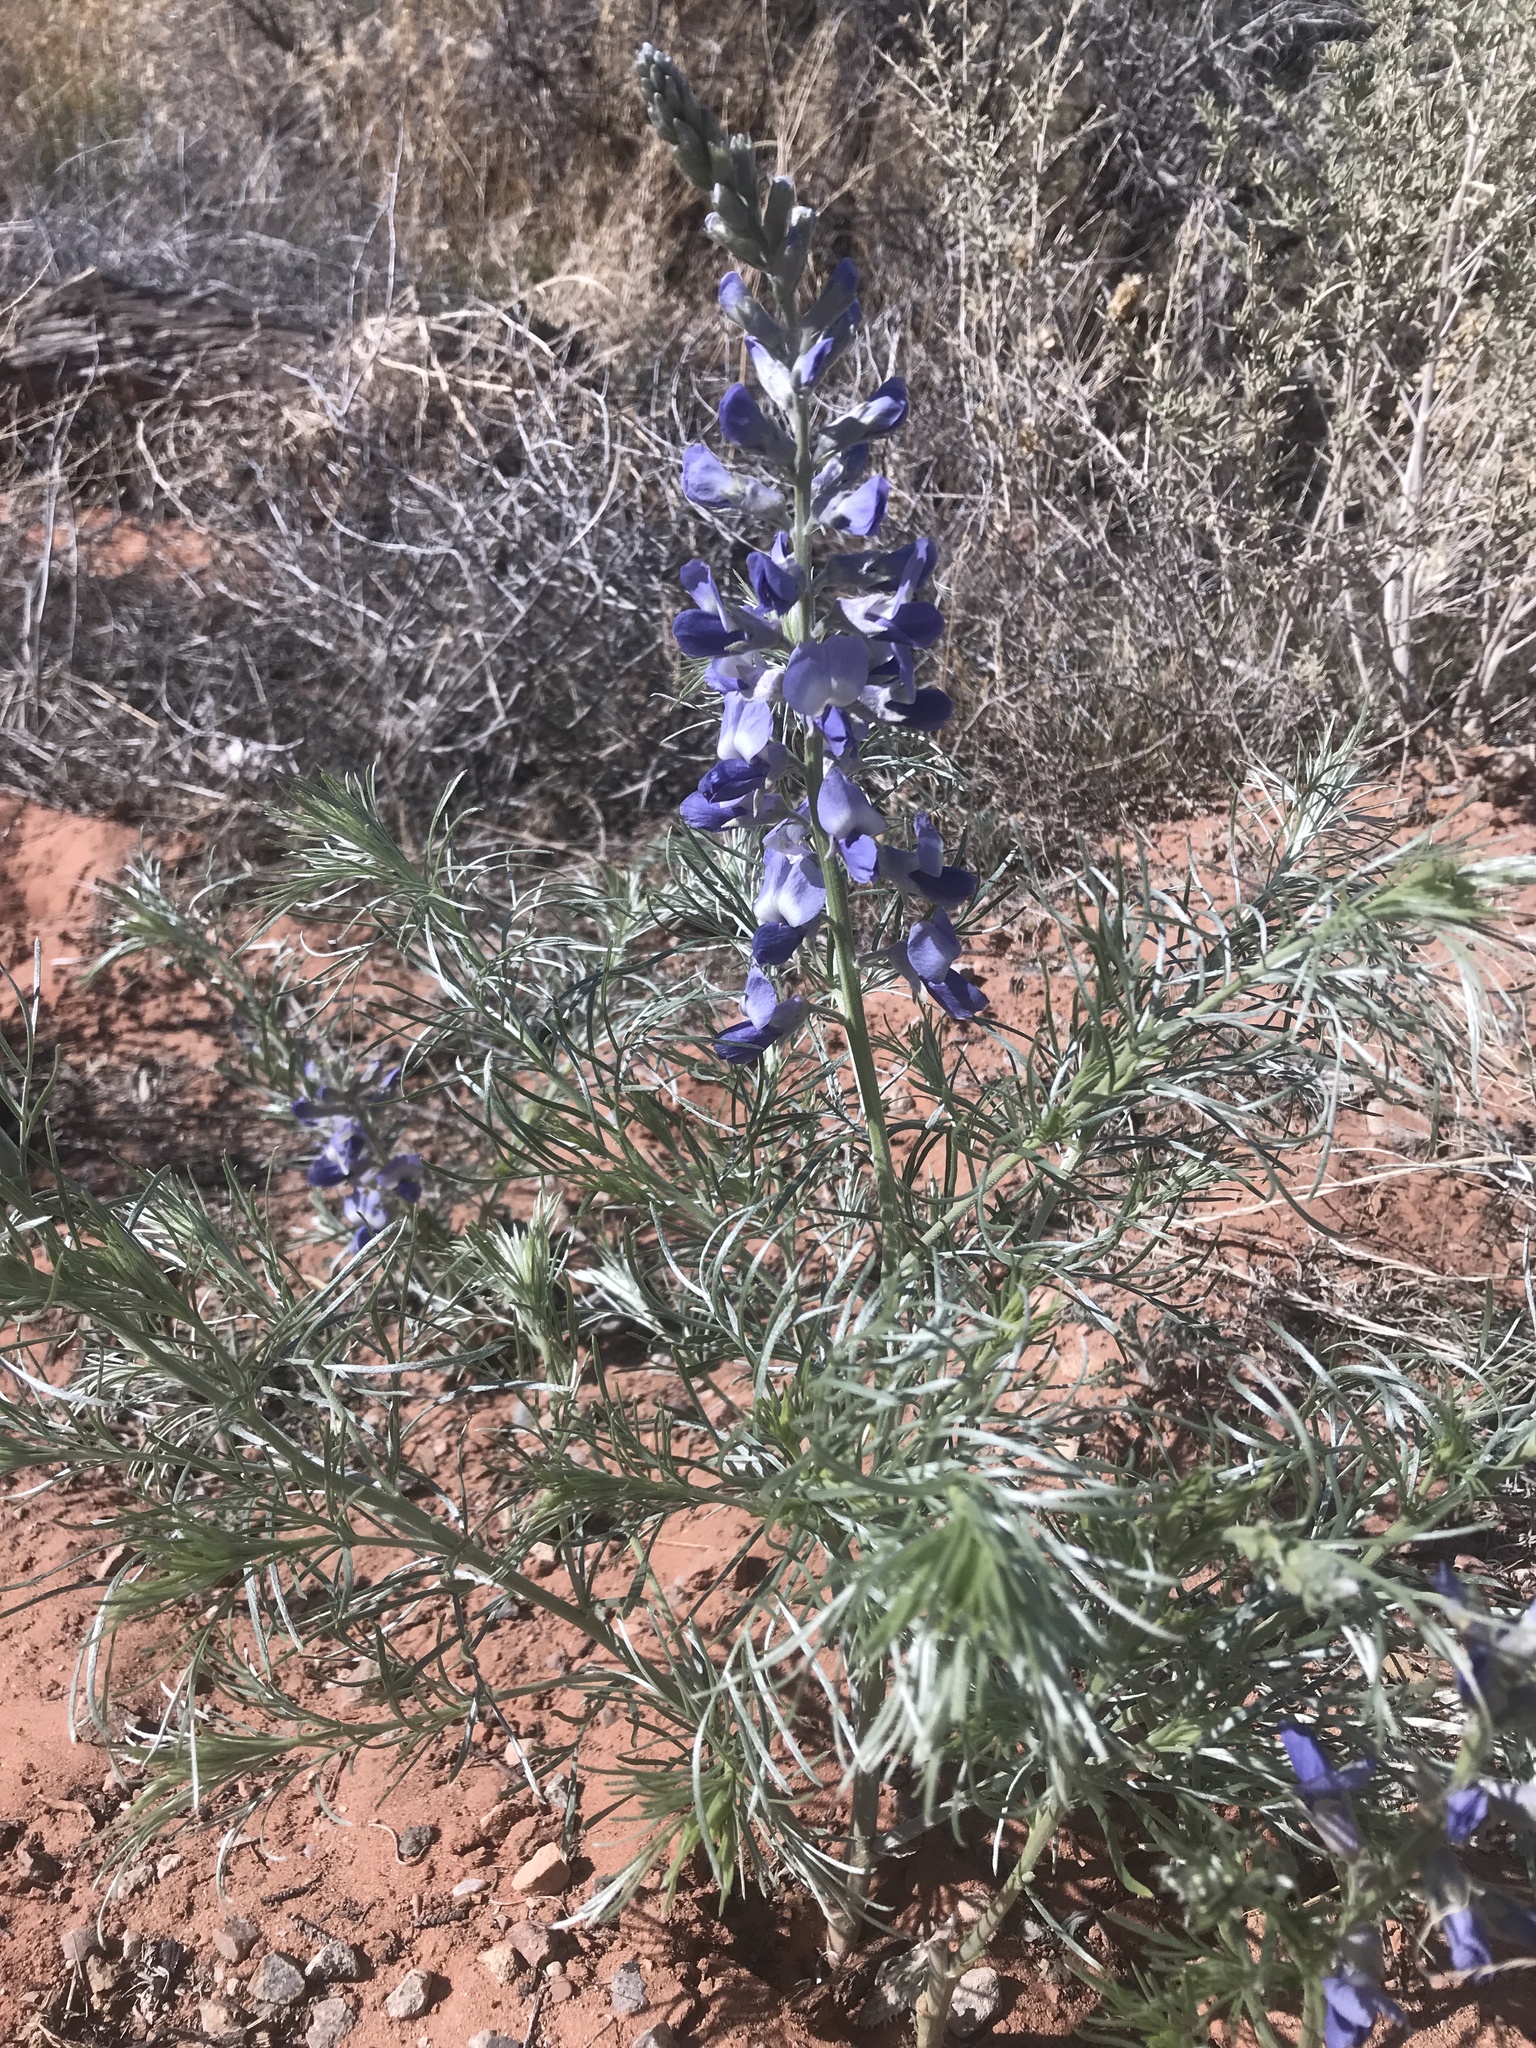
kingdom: Plantae
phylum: Tracheophyta
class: Magnoliopsida
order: Fabales
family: Fabaceae
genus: Sophora
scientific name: Sophora stenophylla
